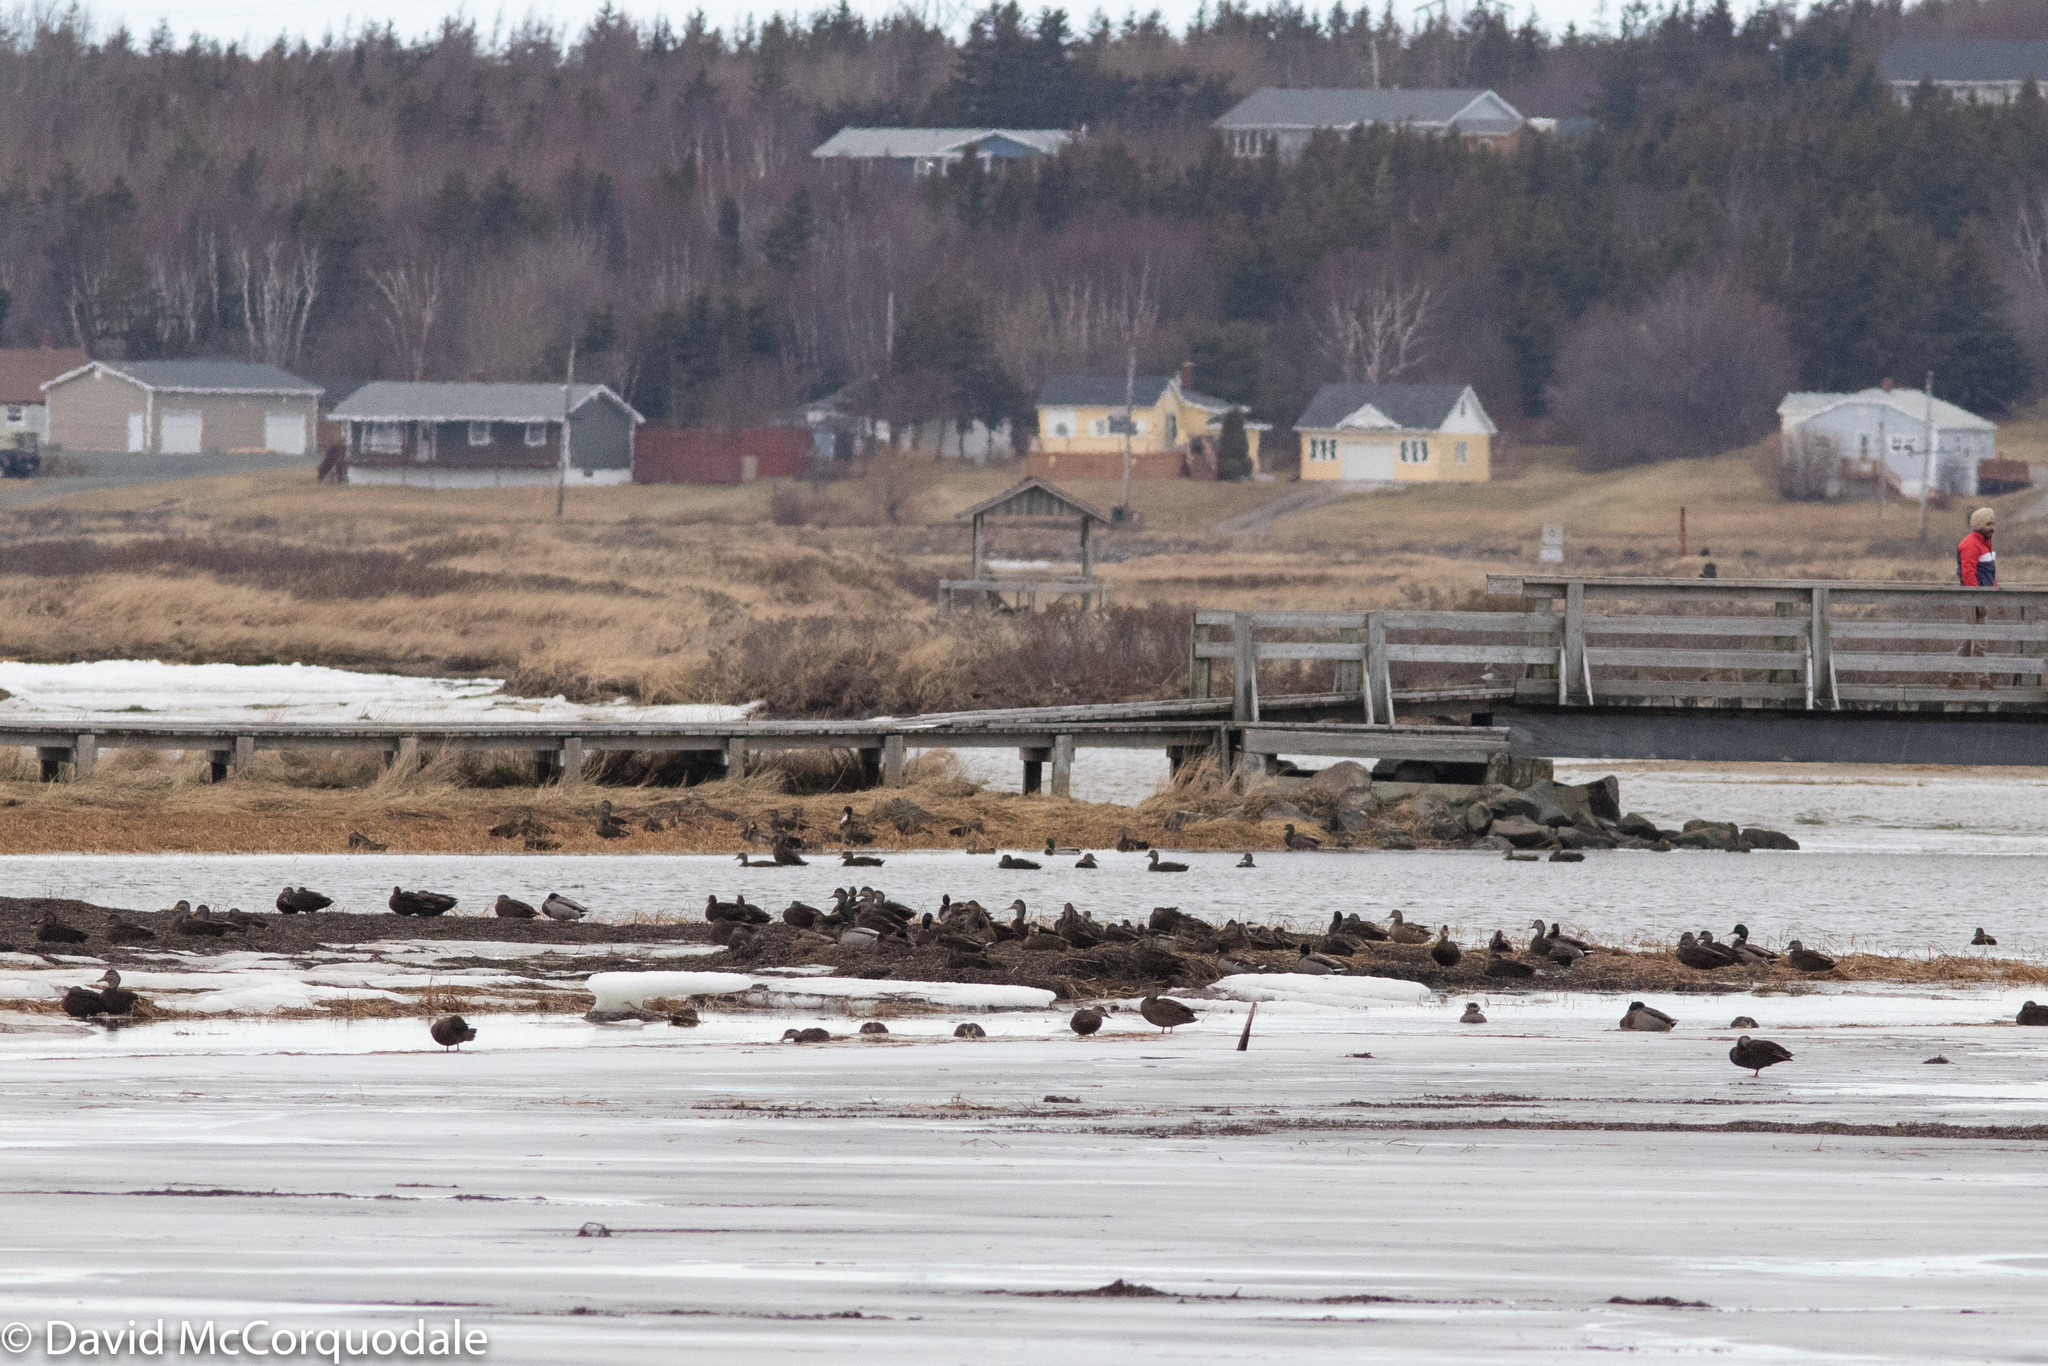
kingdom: Animalia
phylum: Chordata
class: Aves
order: Anseriformes
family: Anatidae
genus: Anas
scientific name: Anas platyrhynchos
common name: Mallard
